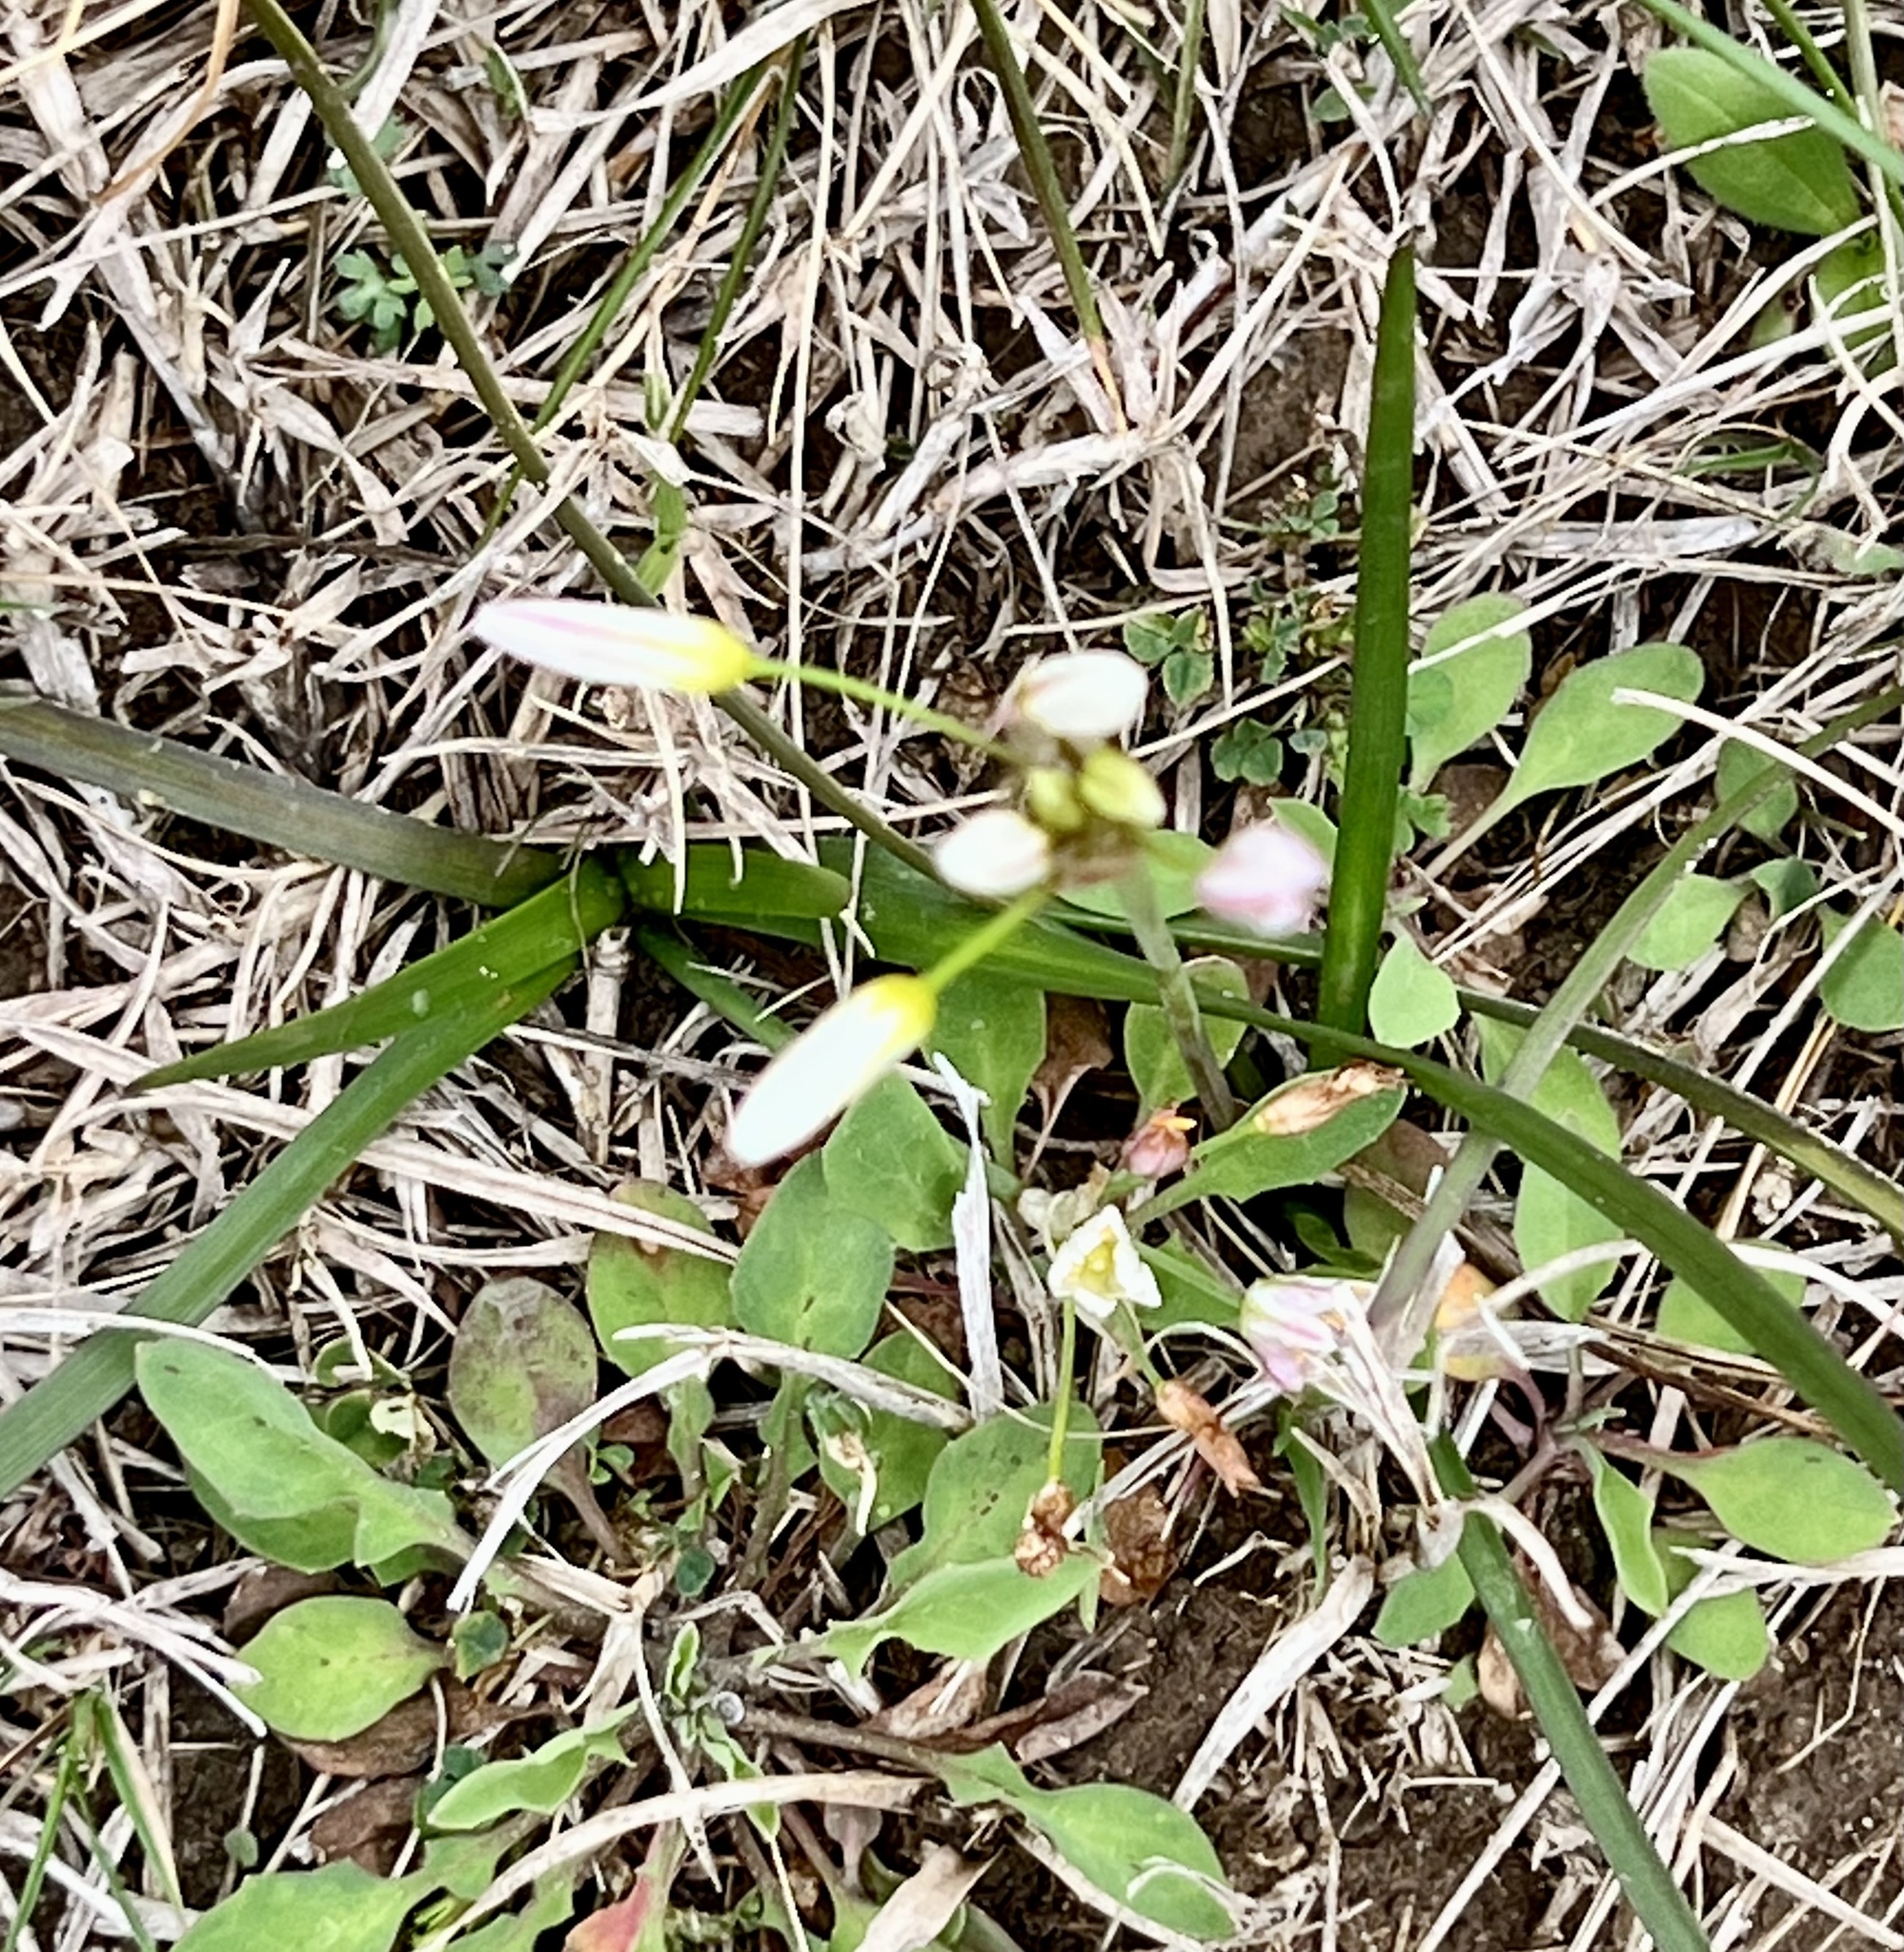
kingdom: Plantae
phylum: Tracheophyta
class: Liliopsida
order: Asparagales
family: Amaryllidaceae
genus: Nothoscordum
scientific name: Nothoscordum bivalve
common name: Crow-poison
